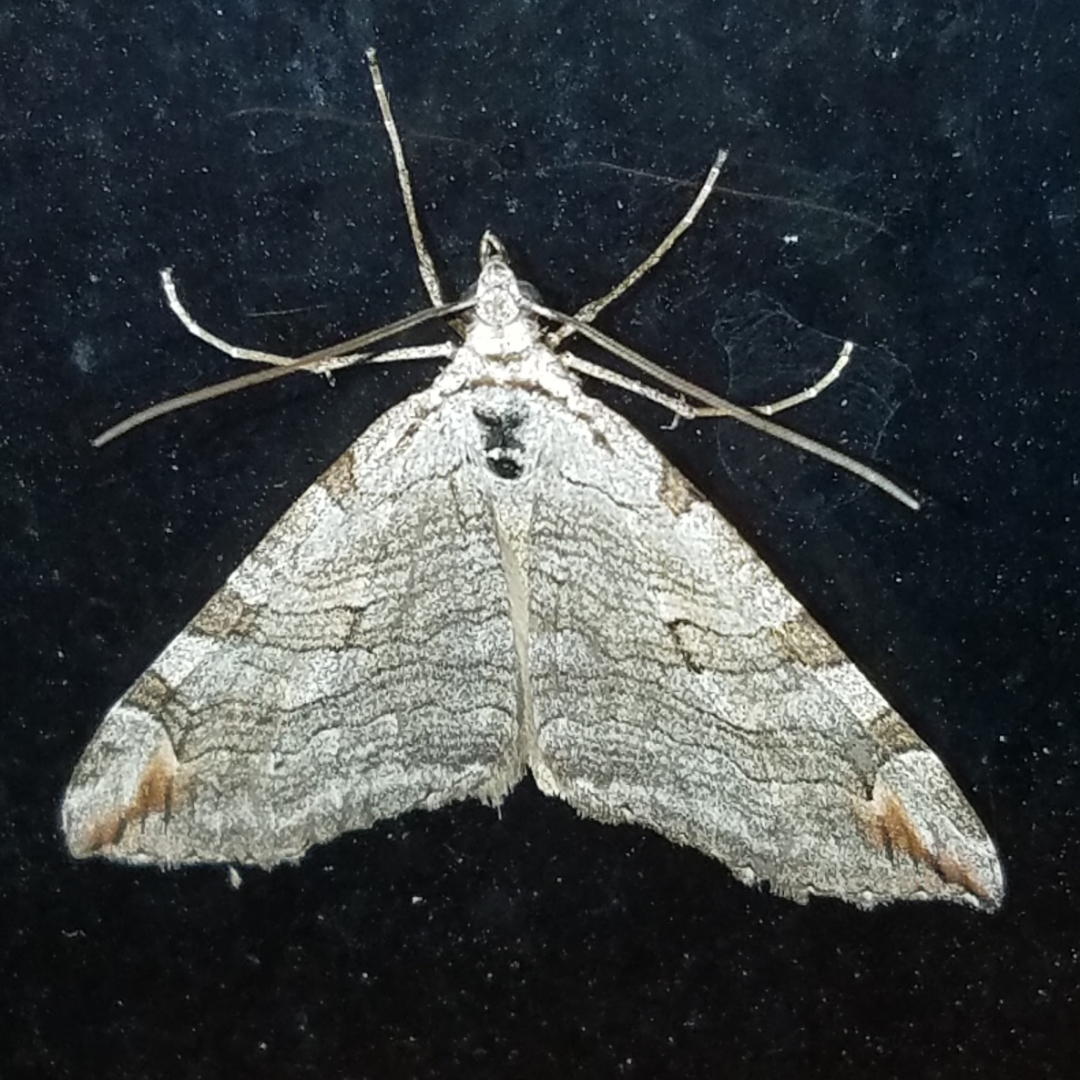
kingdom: Animalia
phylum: Arthropoda
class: Insecta
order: Lepidoptera
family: Geometridae
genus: Aplocera
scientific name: Aplocera plagiata
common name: Treble-bar
